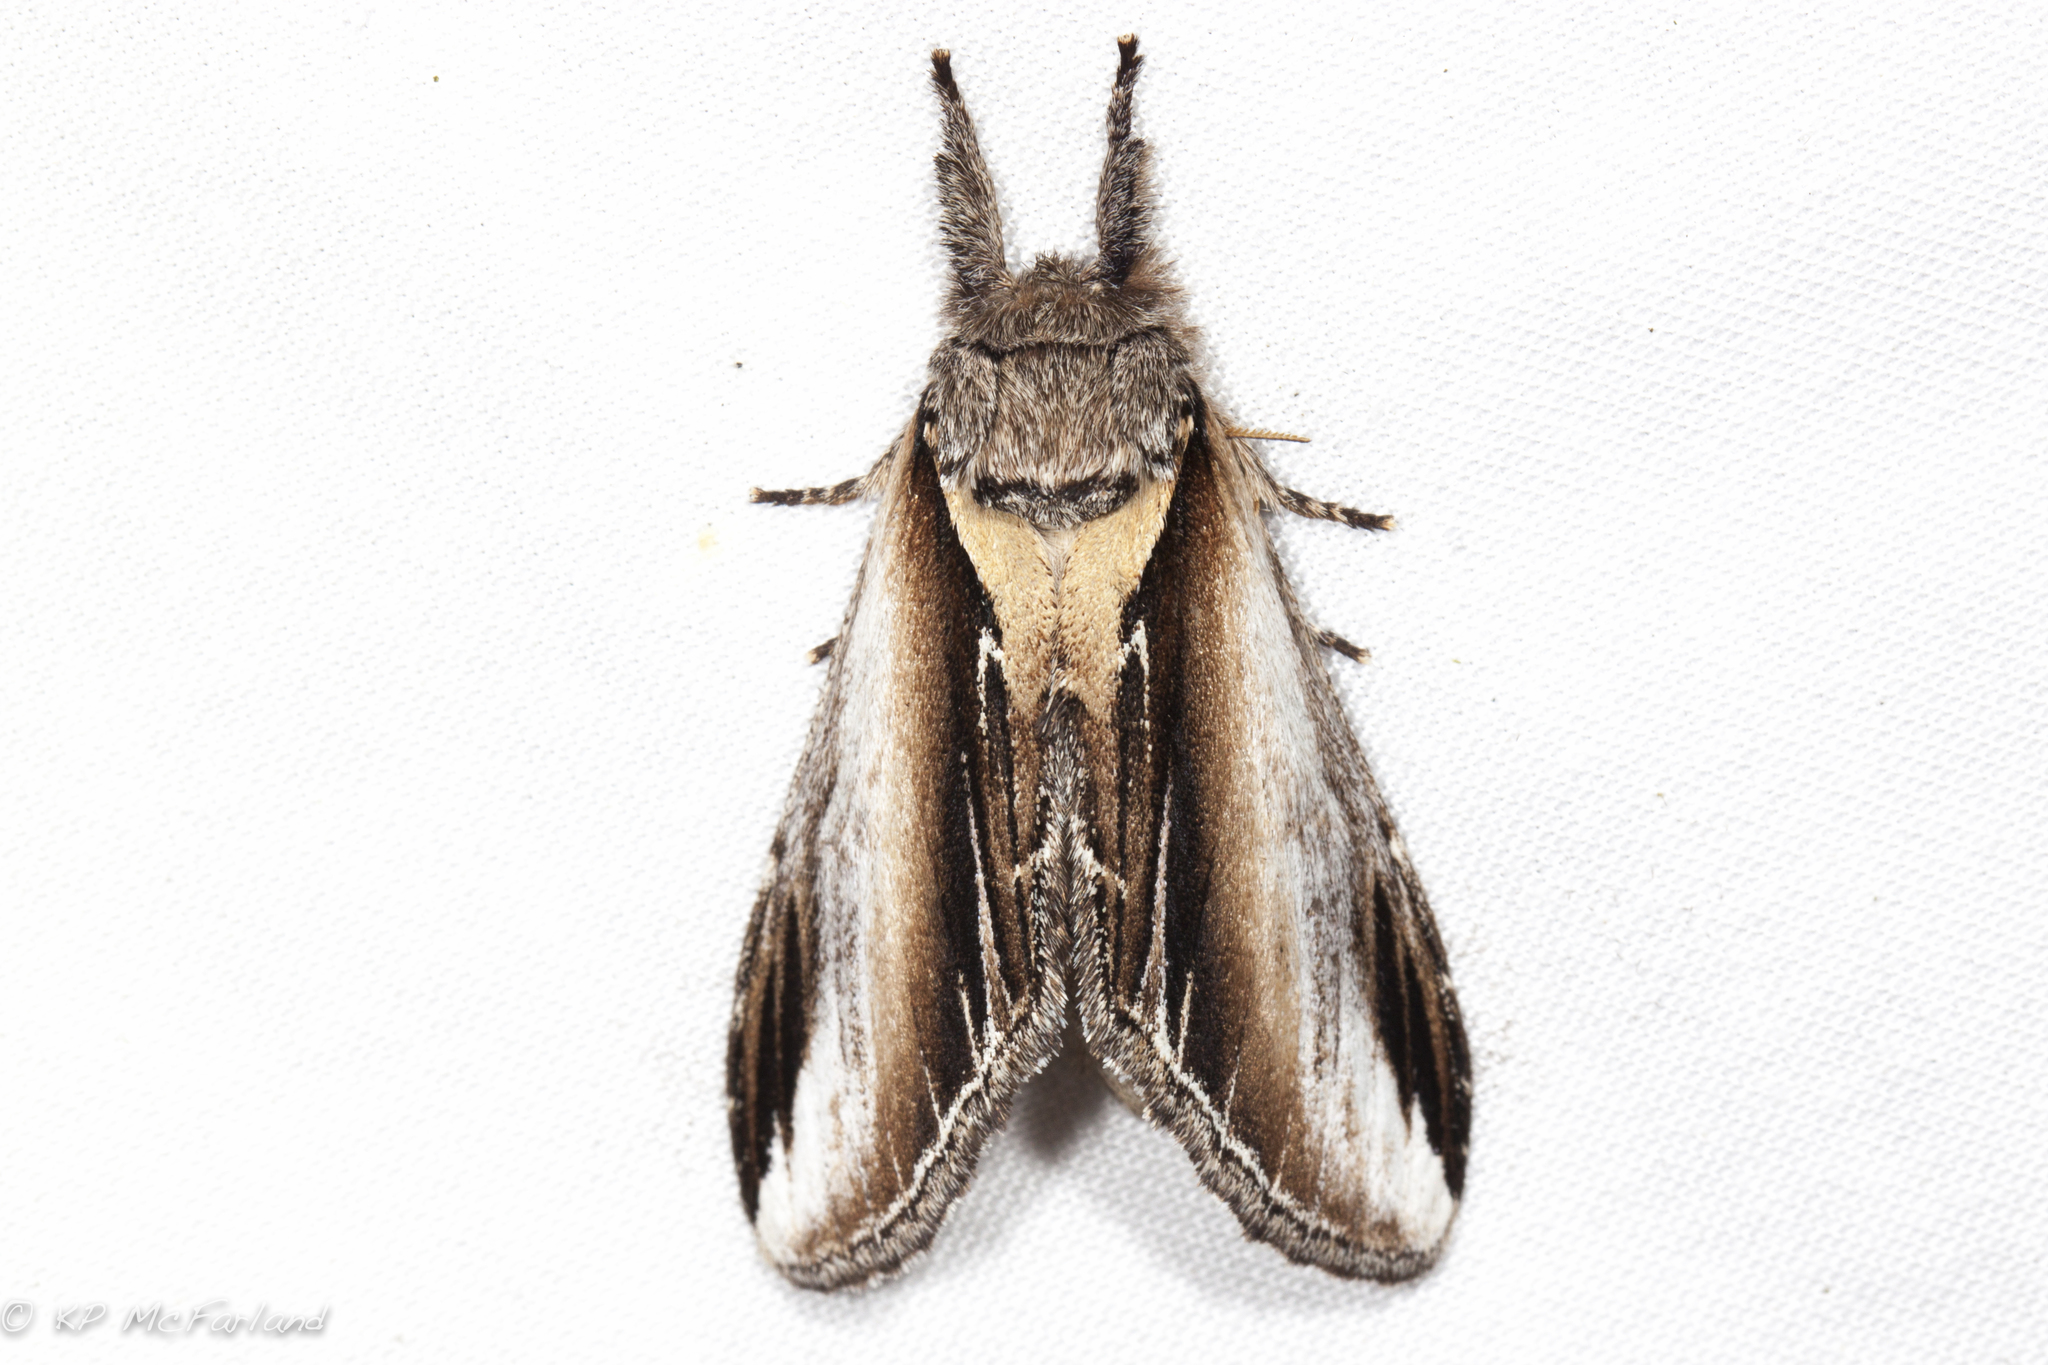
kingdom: Animalia
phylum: Arthropoda
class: Insecta
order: Lepidoptera
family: Notodontidae
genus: Pheosia
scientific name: Pheosia rimosa
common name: Black-rimmed prominent
